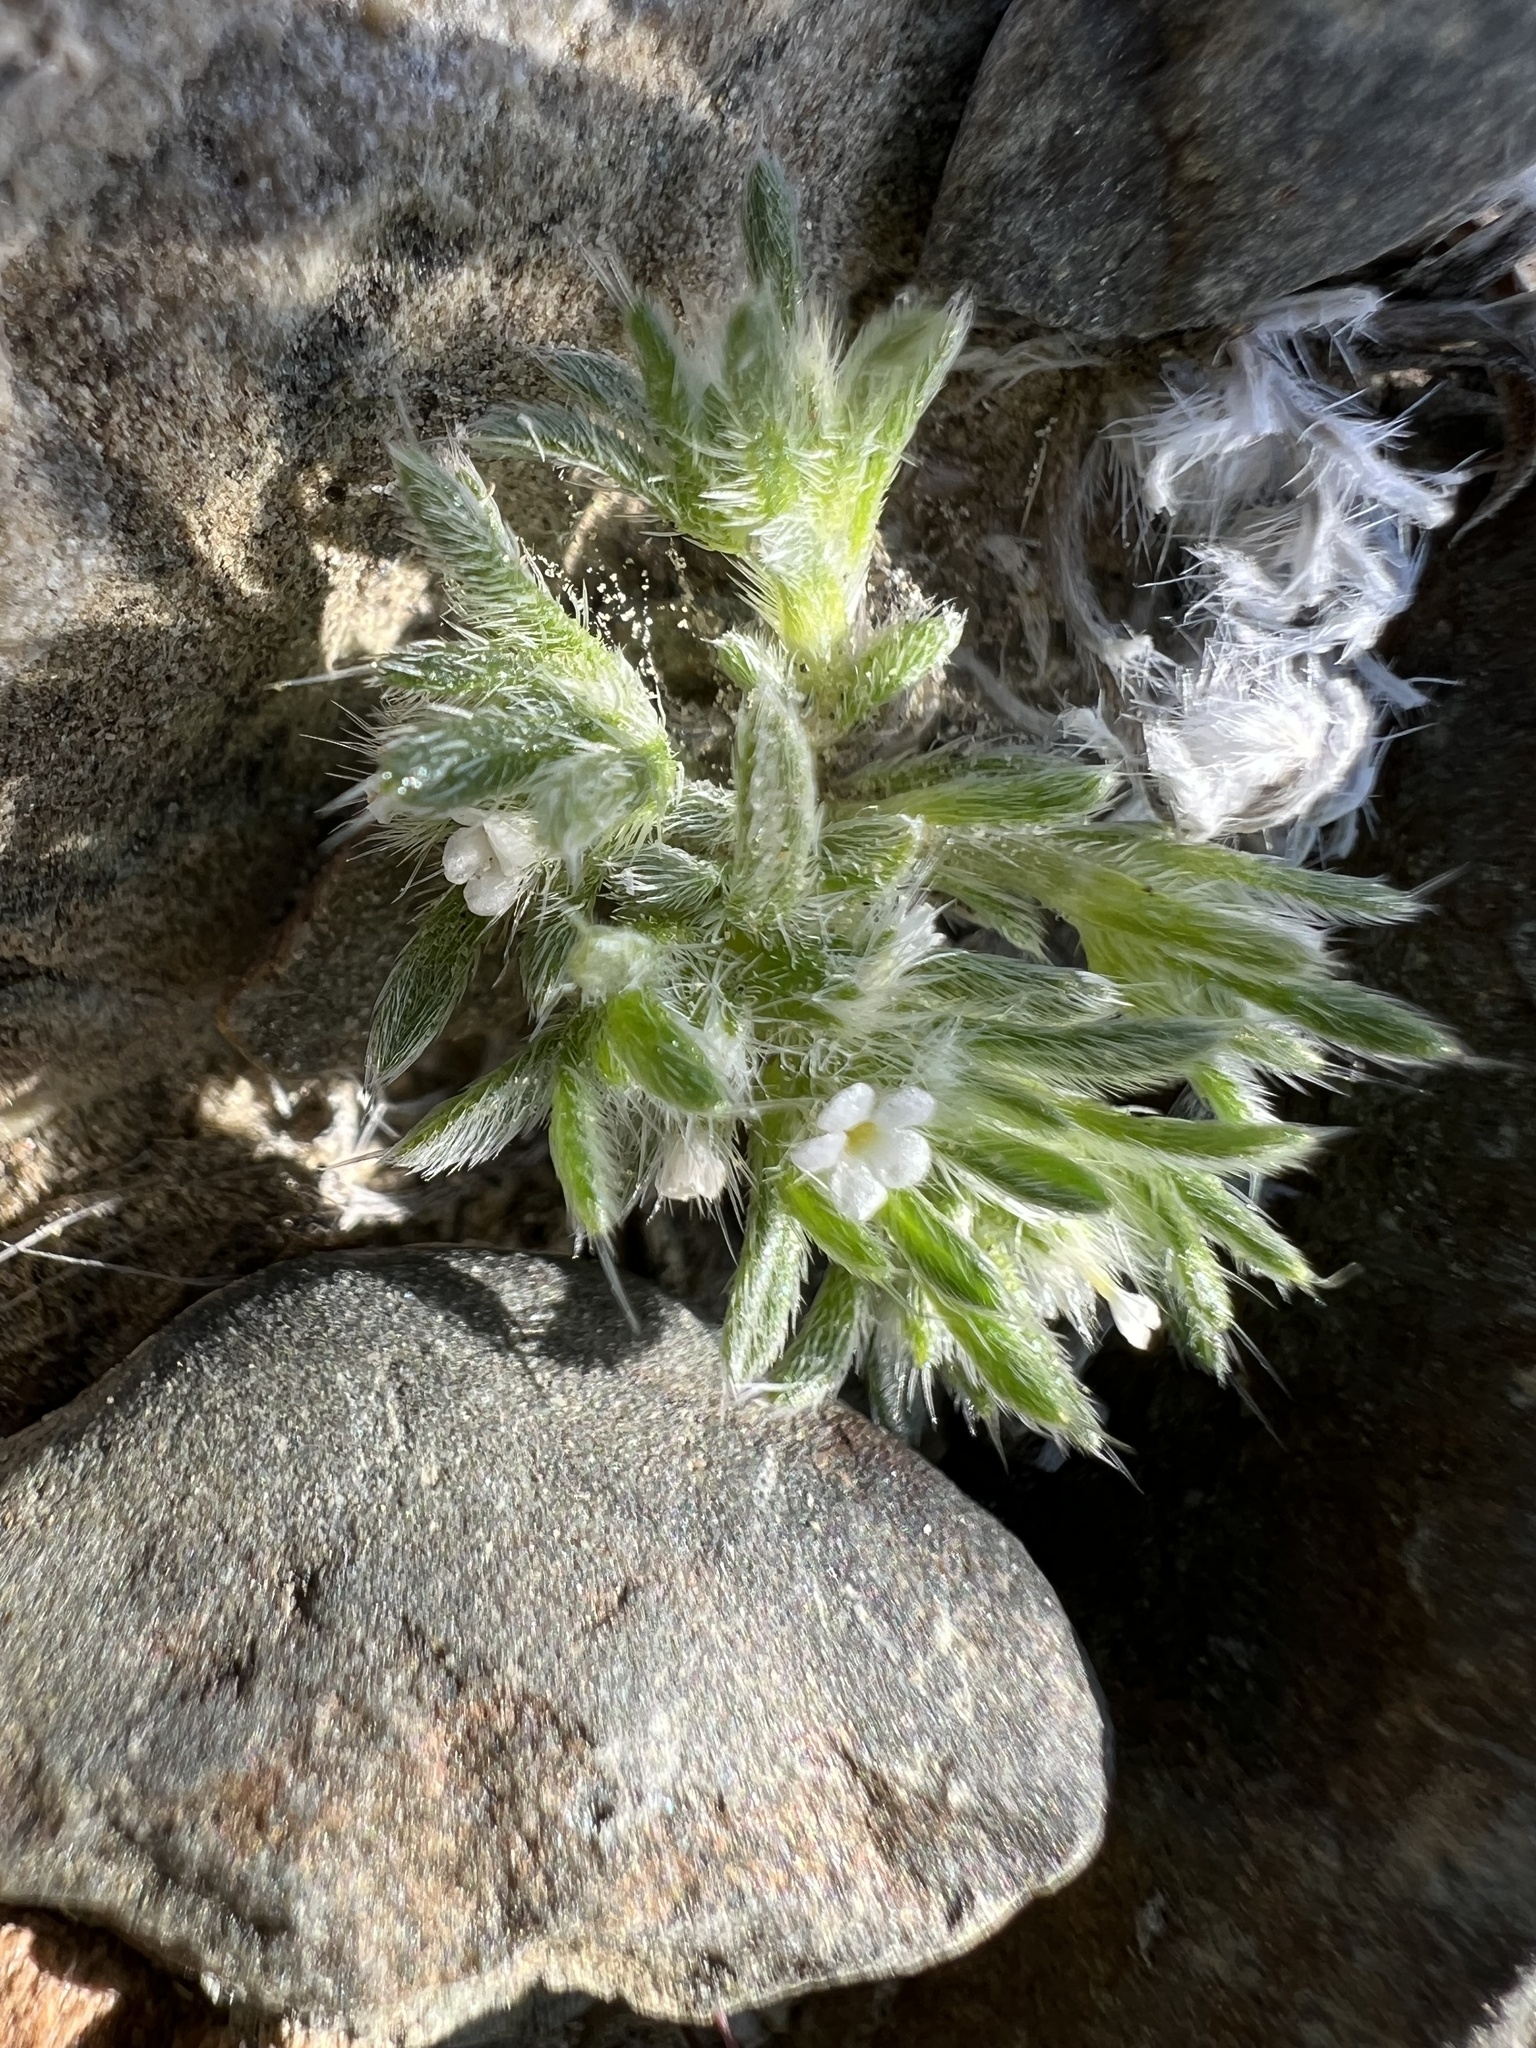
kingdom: Plantae
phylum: Tracheophyta
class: Magnoliopsida
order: Boraginales
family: Boraginaceae
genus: Greeneocharis
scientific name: Greeneocharis circumscissa
